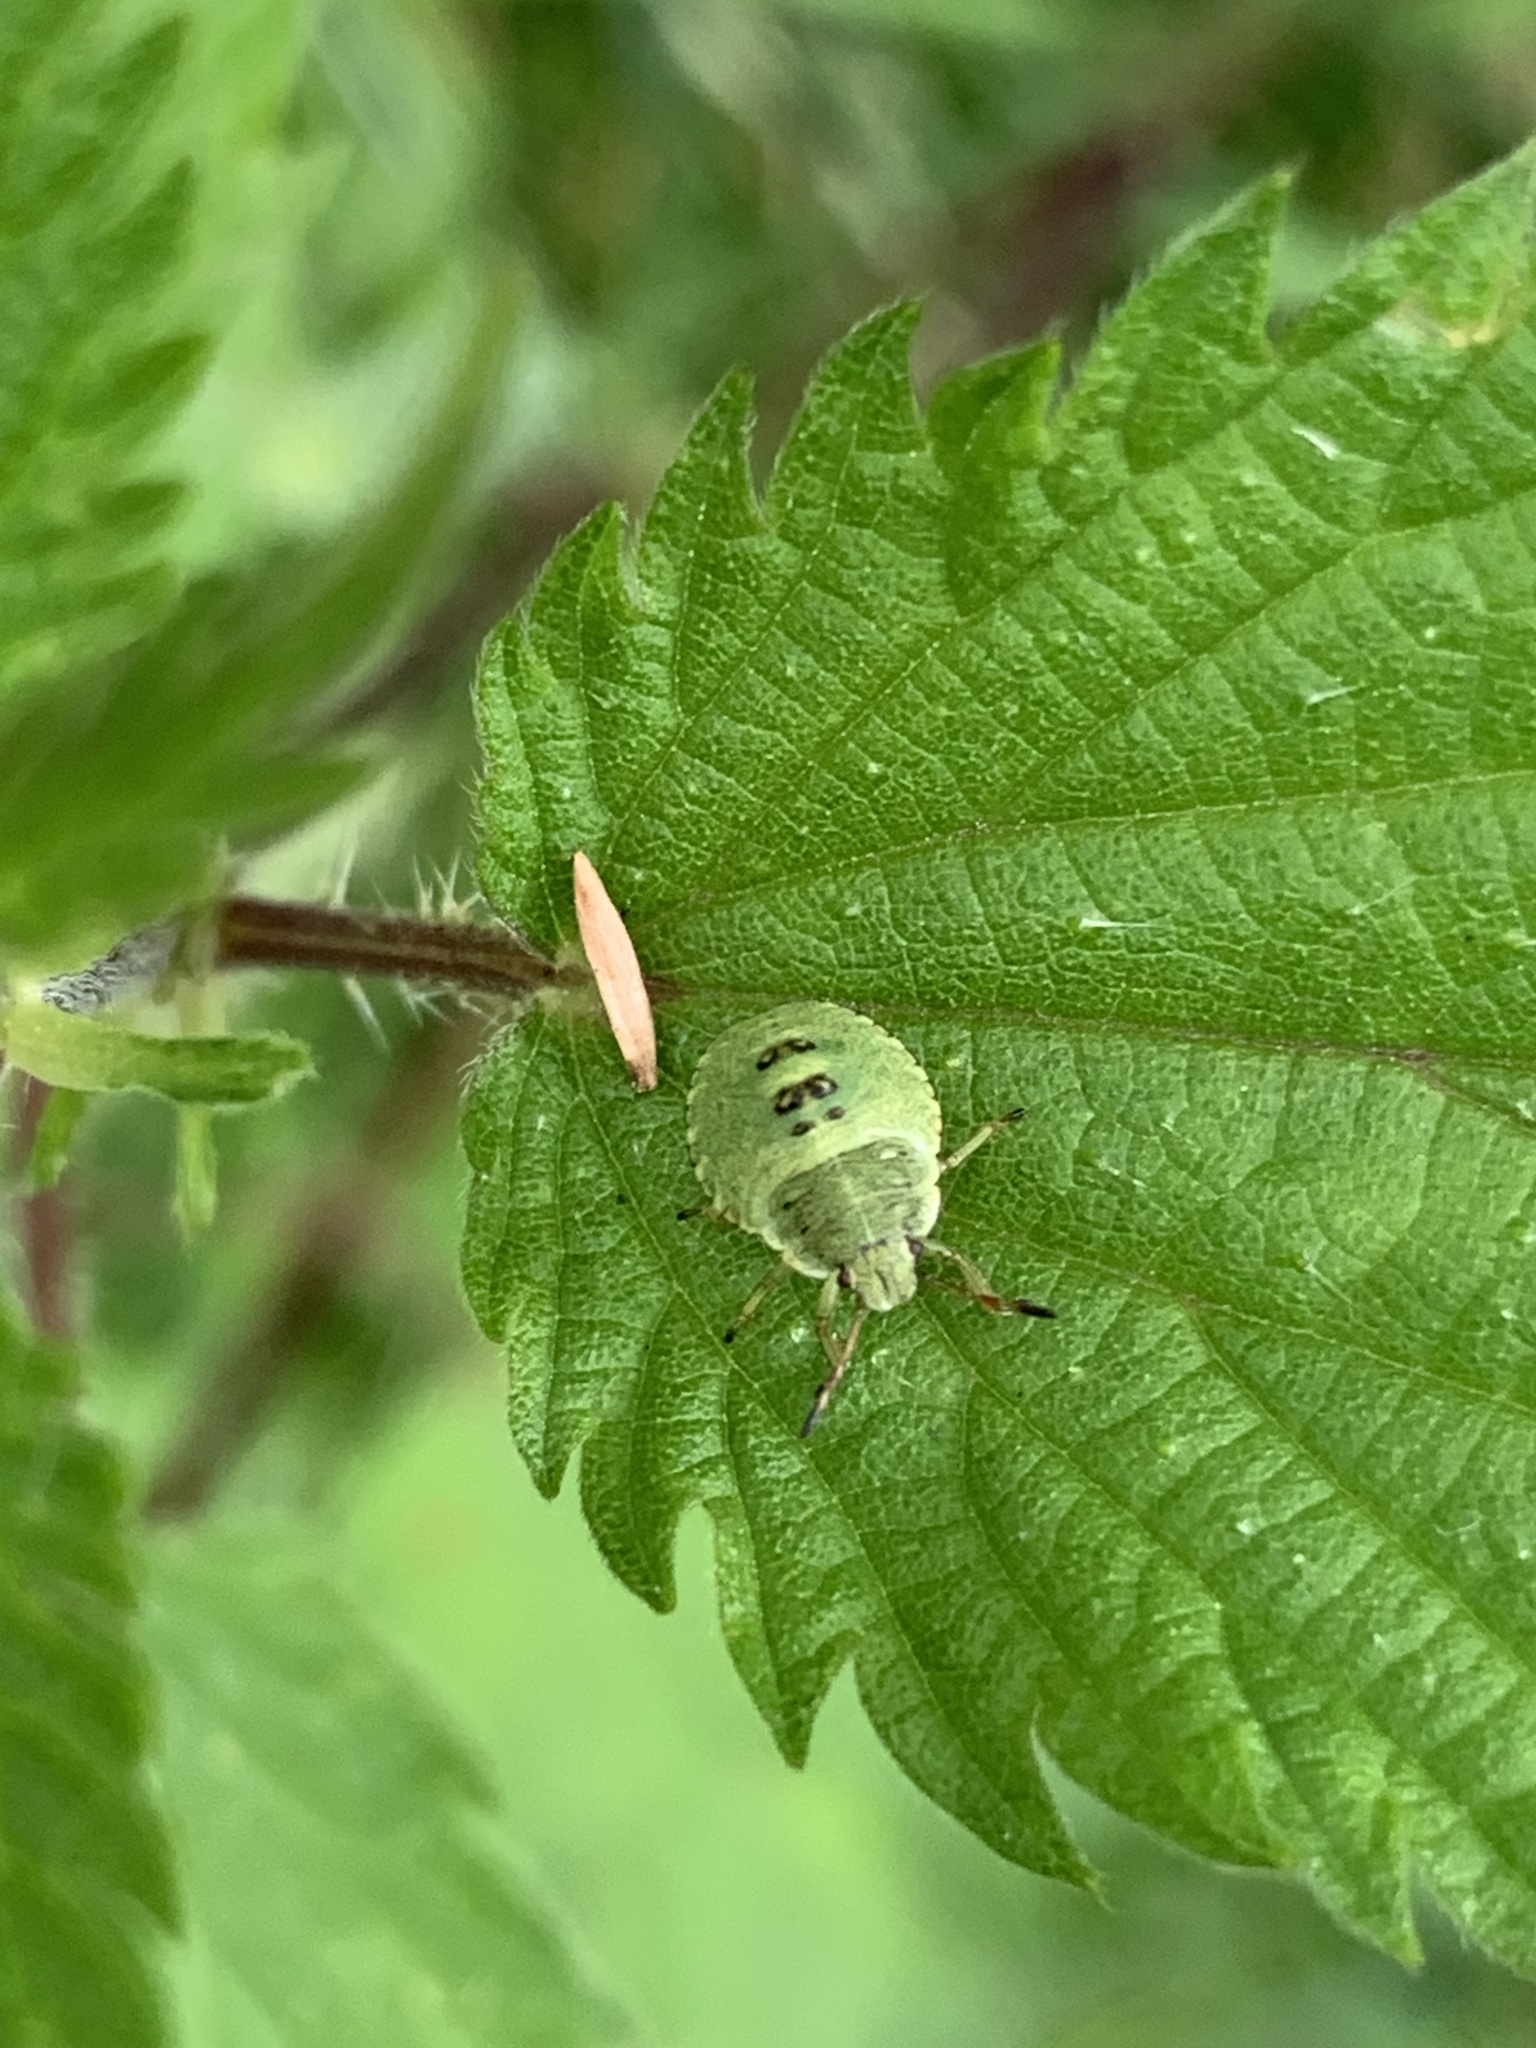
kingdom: Animalia
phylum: Arthropoda
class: Insecta
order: Hemiptera
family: Pentatomidae
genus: Palomena
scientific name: Palomena prasina
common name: Green shieldbug
